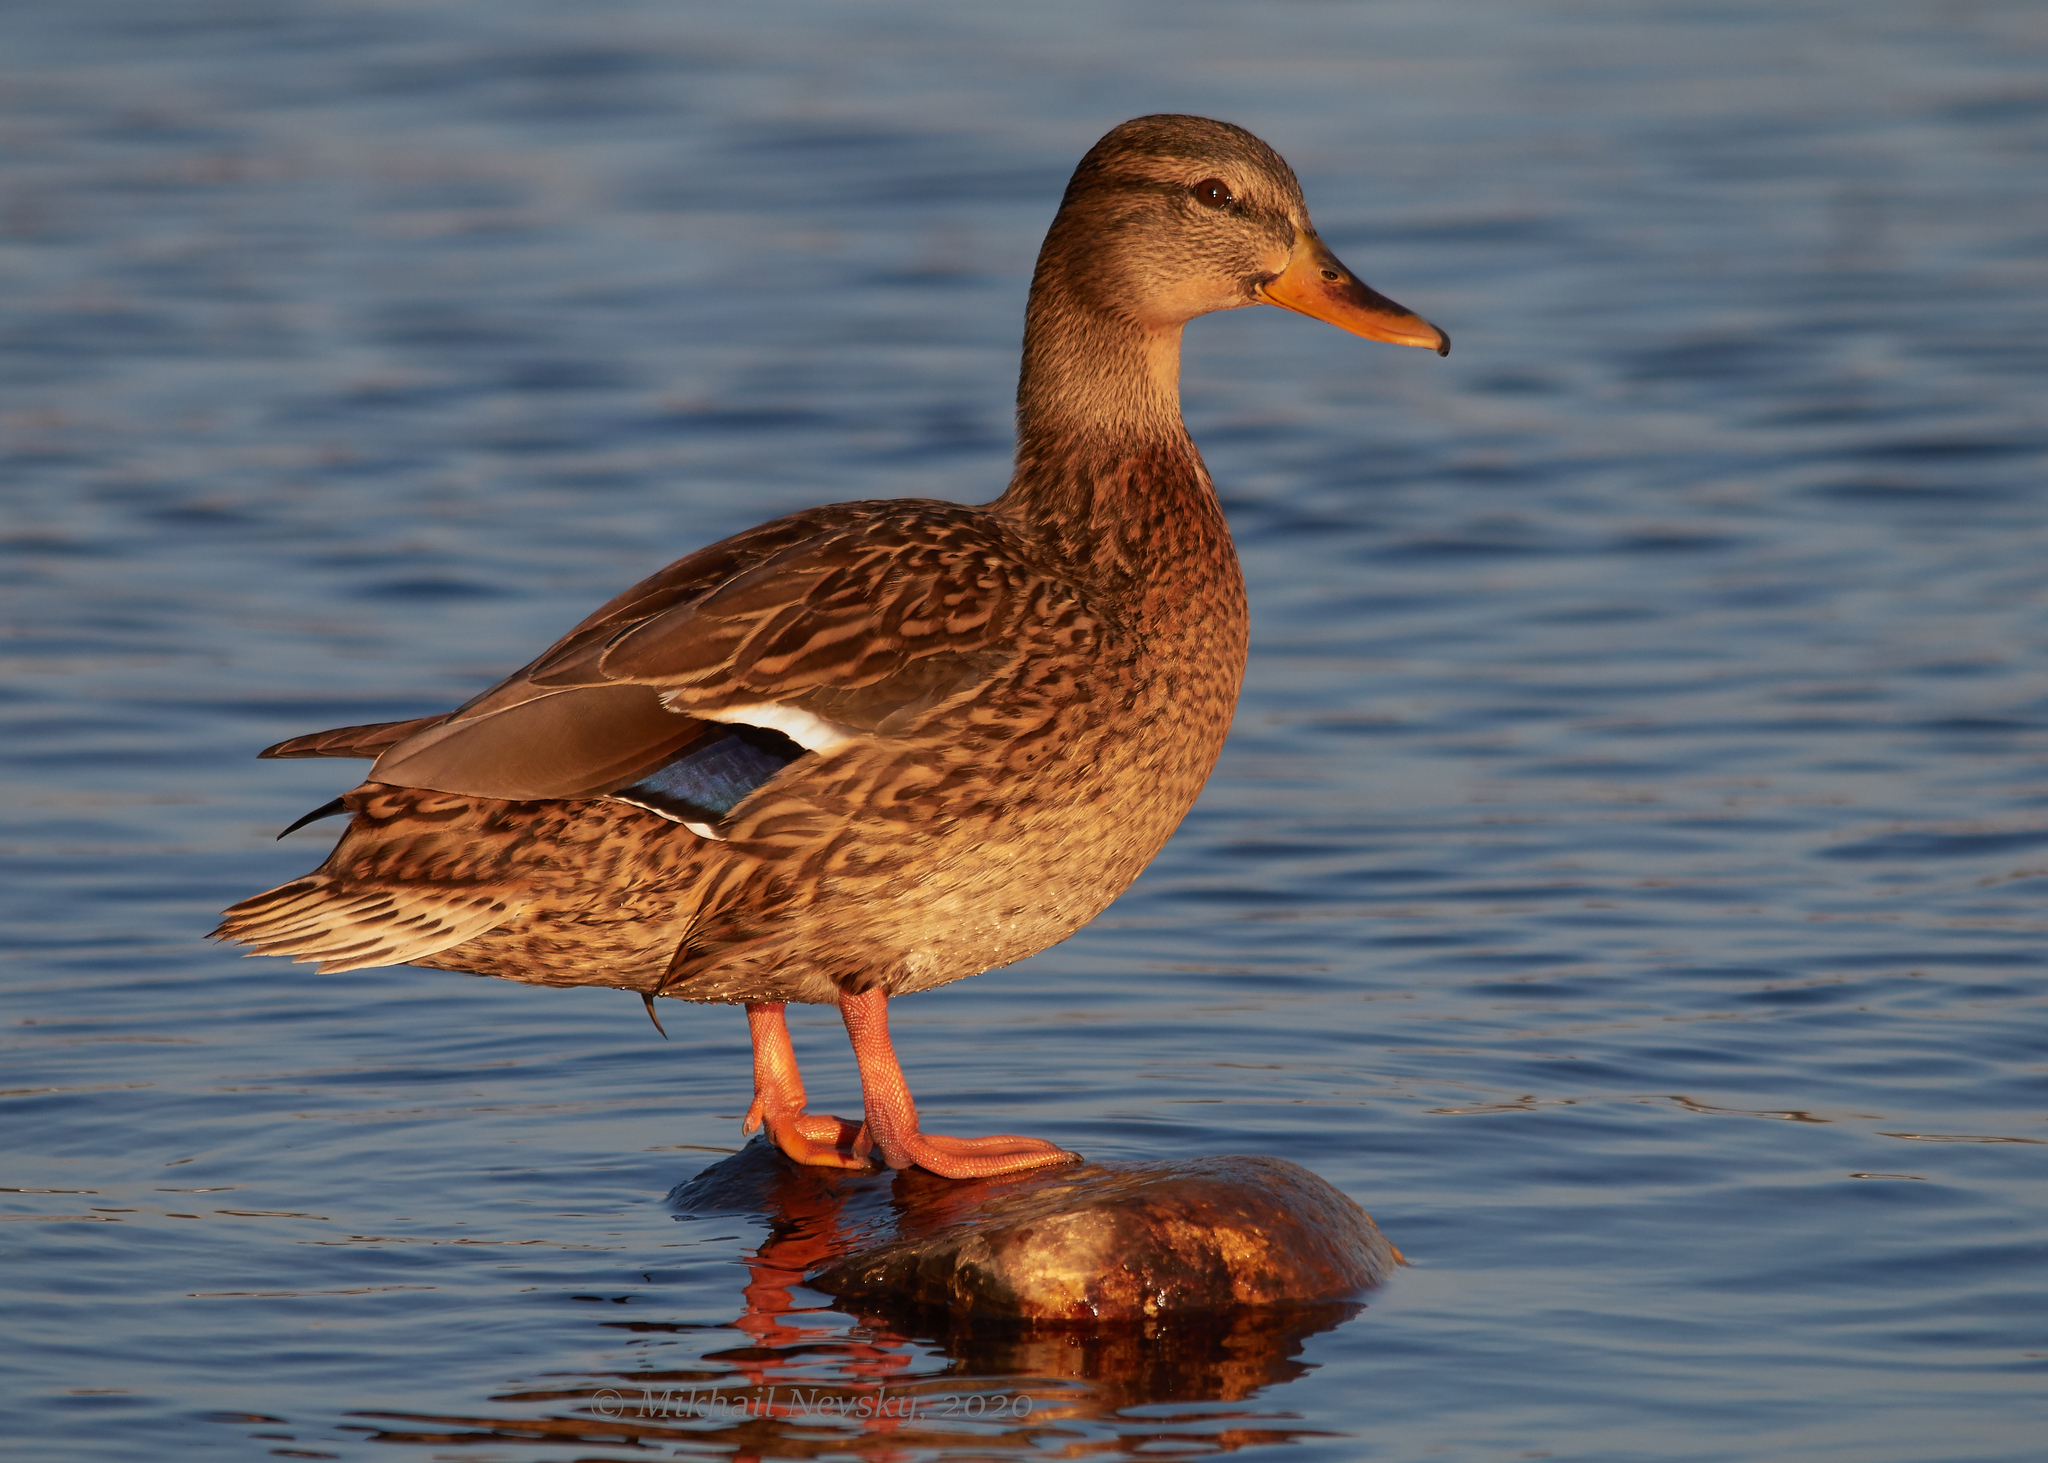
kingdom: Animalia
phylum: Chordata
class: Aves
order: Anseriformes
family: Anatidae
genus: Anas
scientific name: Anas platyrhynchos
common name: Mallard
